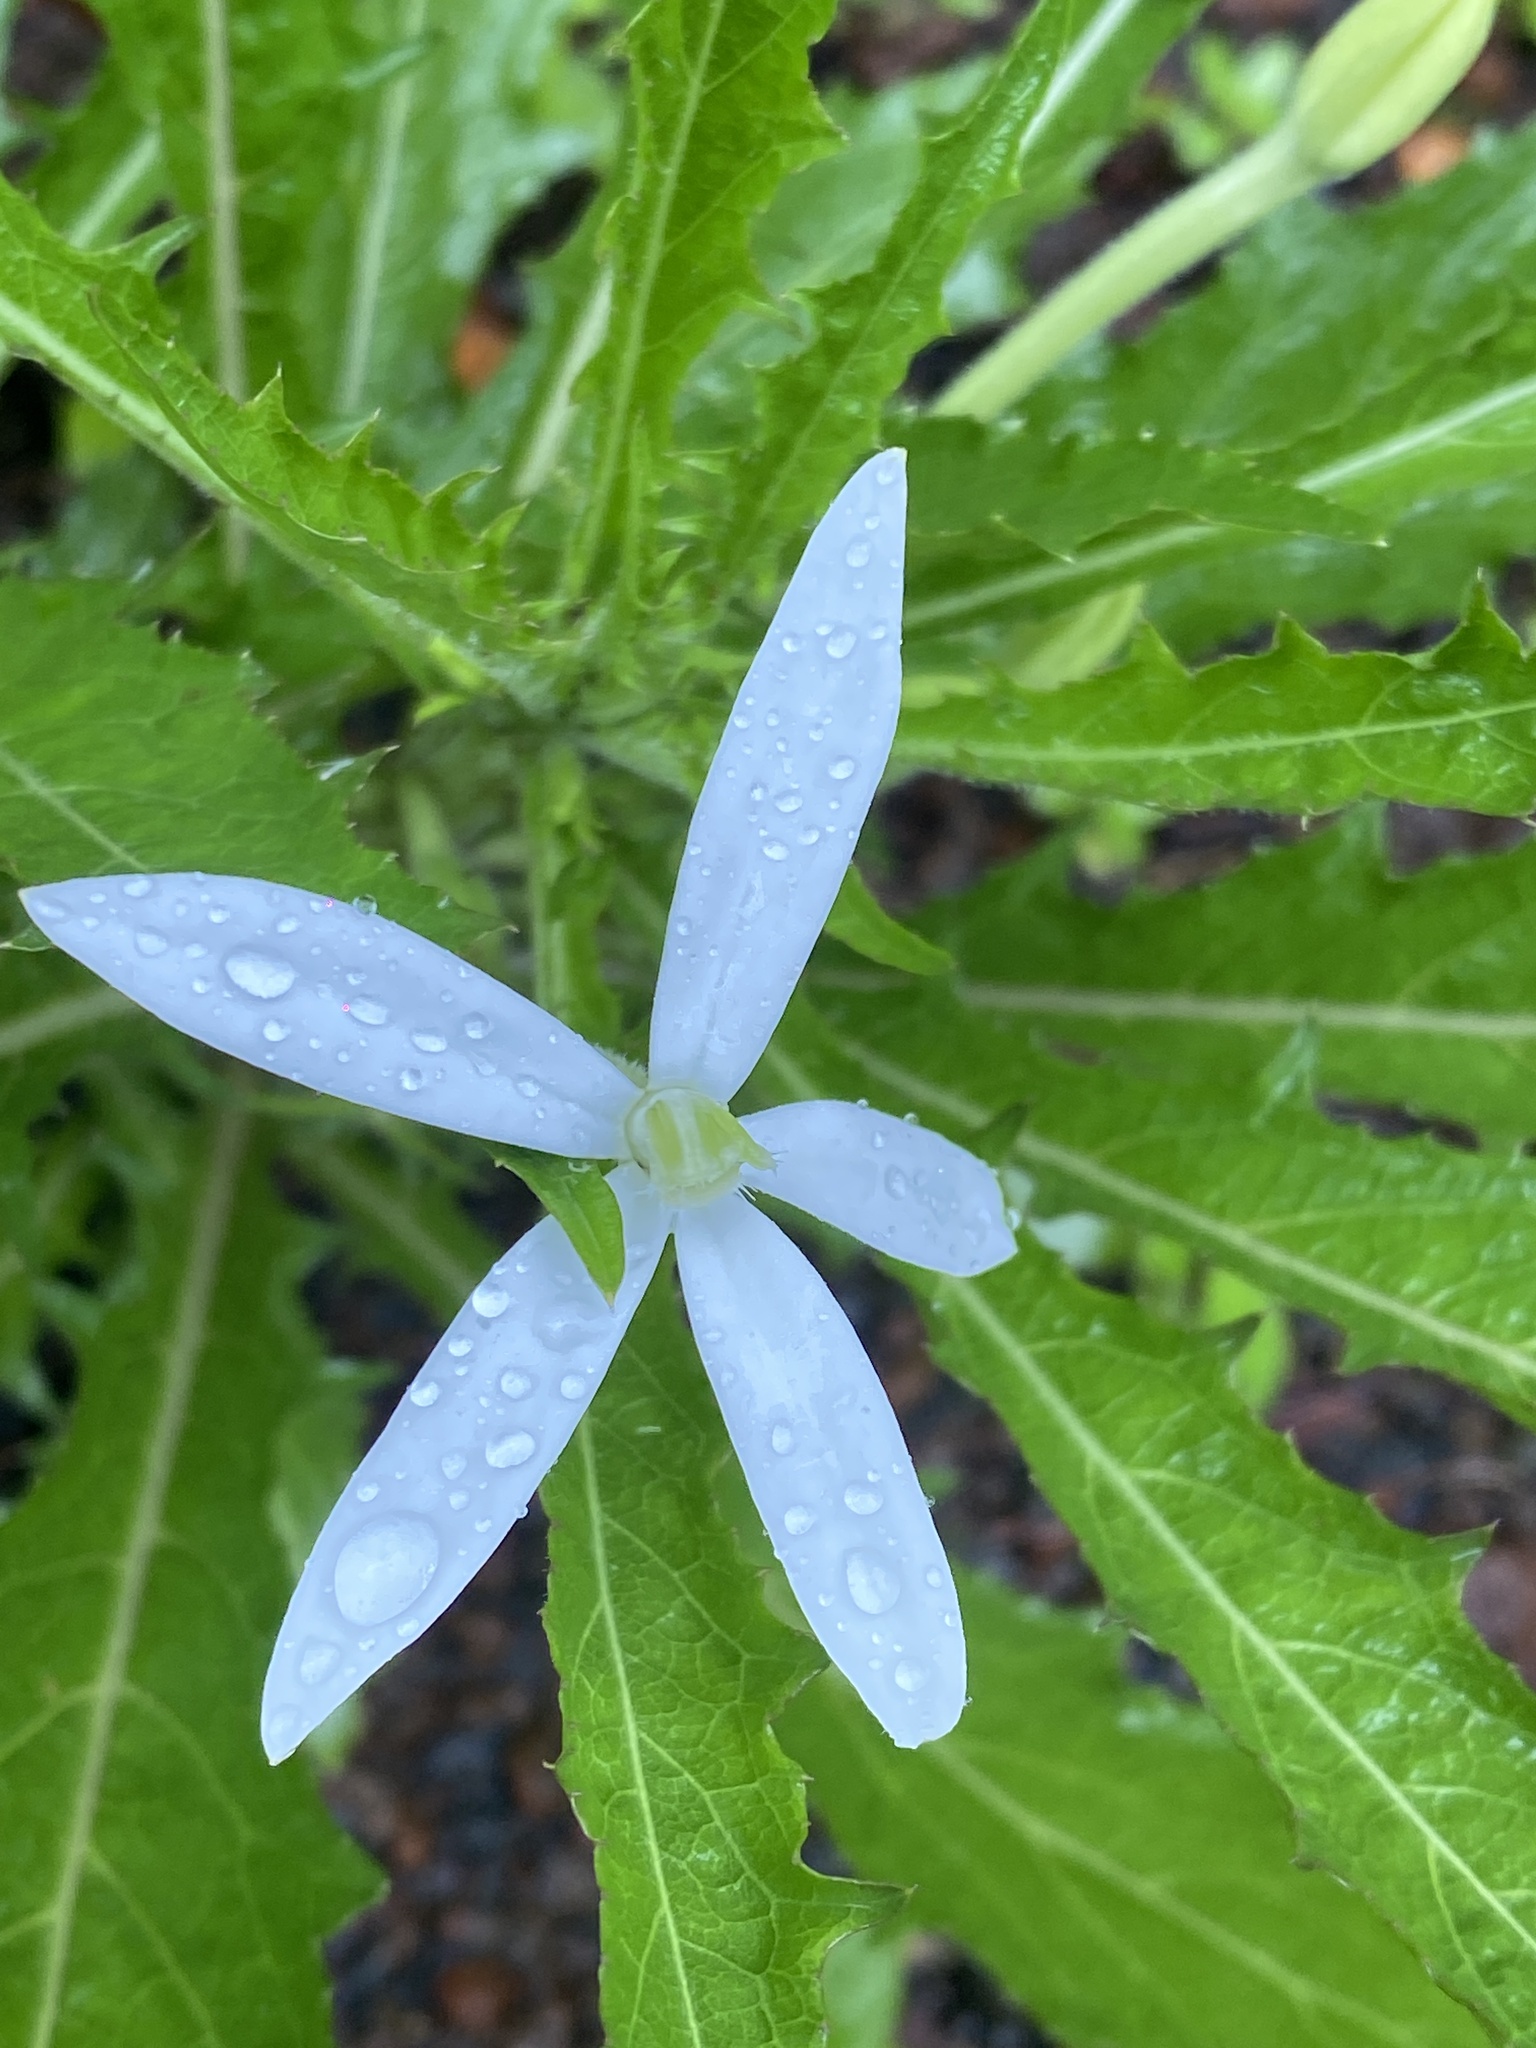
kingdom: Plantae
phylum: Tracheophyta
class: Magnoliopsida
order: Asterales
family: Campanulaceae
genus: Hippobroma
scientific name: Hippobroma longiflora
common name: Madamfate
